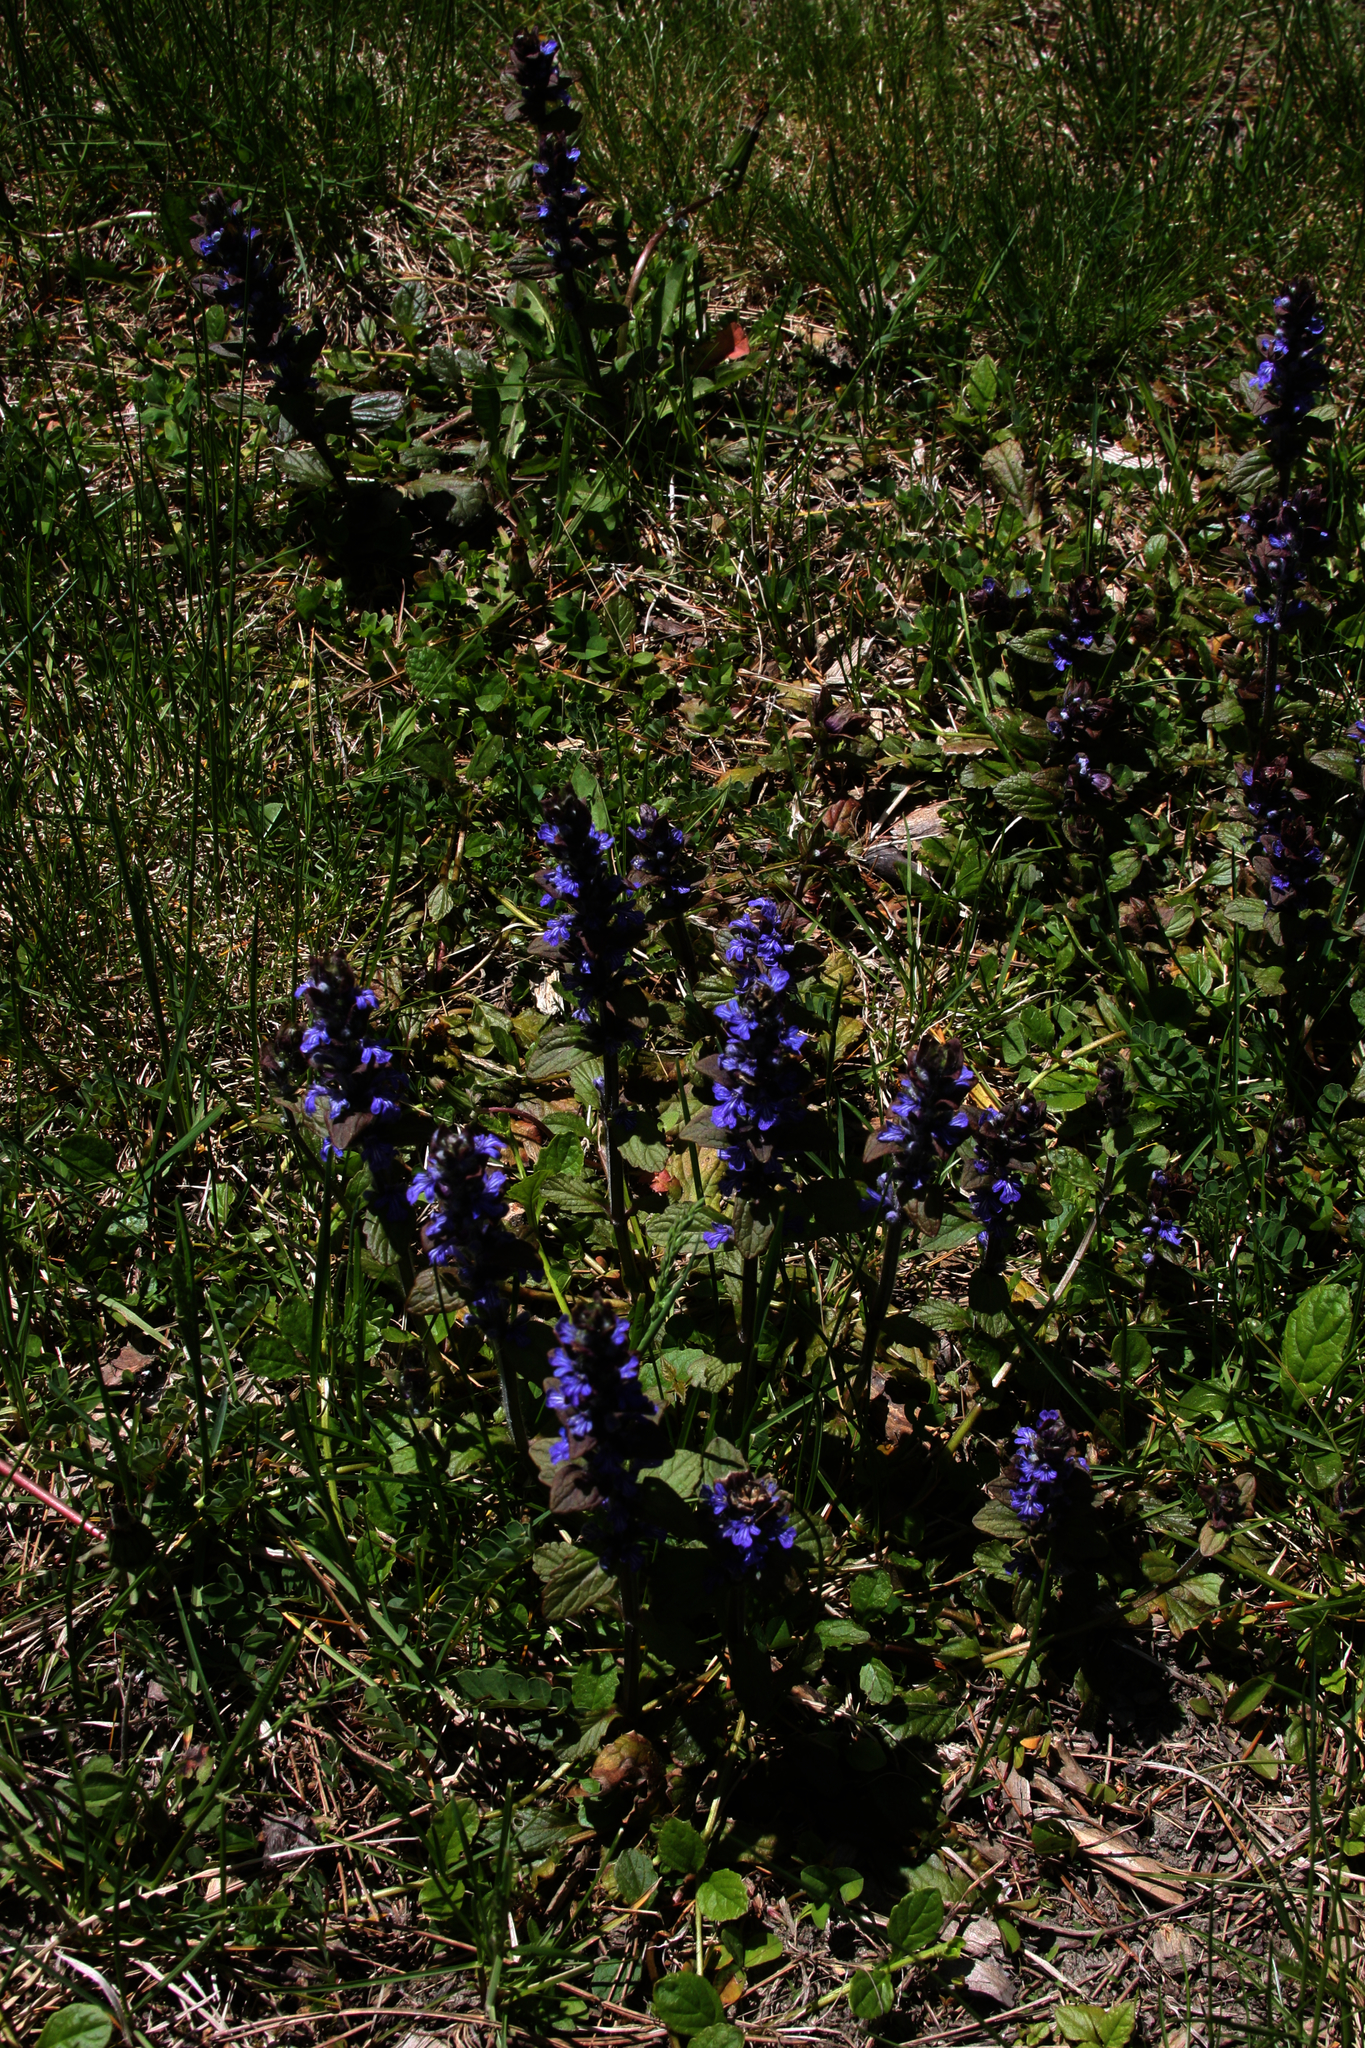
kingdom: Plantae
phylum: Tracheophyta
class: Magnoliopsida
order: Lamiales
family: Lamiaceae
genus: Ajuga
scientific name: Ajuga reptans
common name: Bugle
